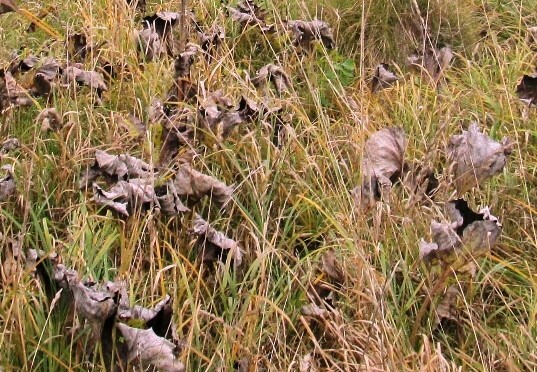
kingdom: Plantae
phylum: Tracheophyta
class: Magnoliopsida
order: Asterales
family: Asteraceae
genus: Petasites
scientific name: Petasites spurius
